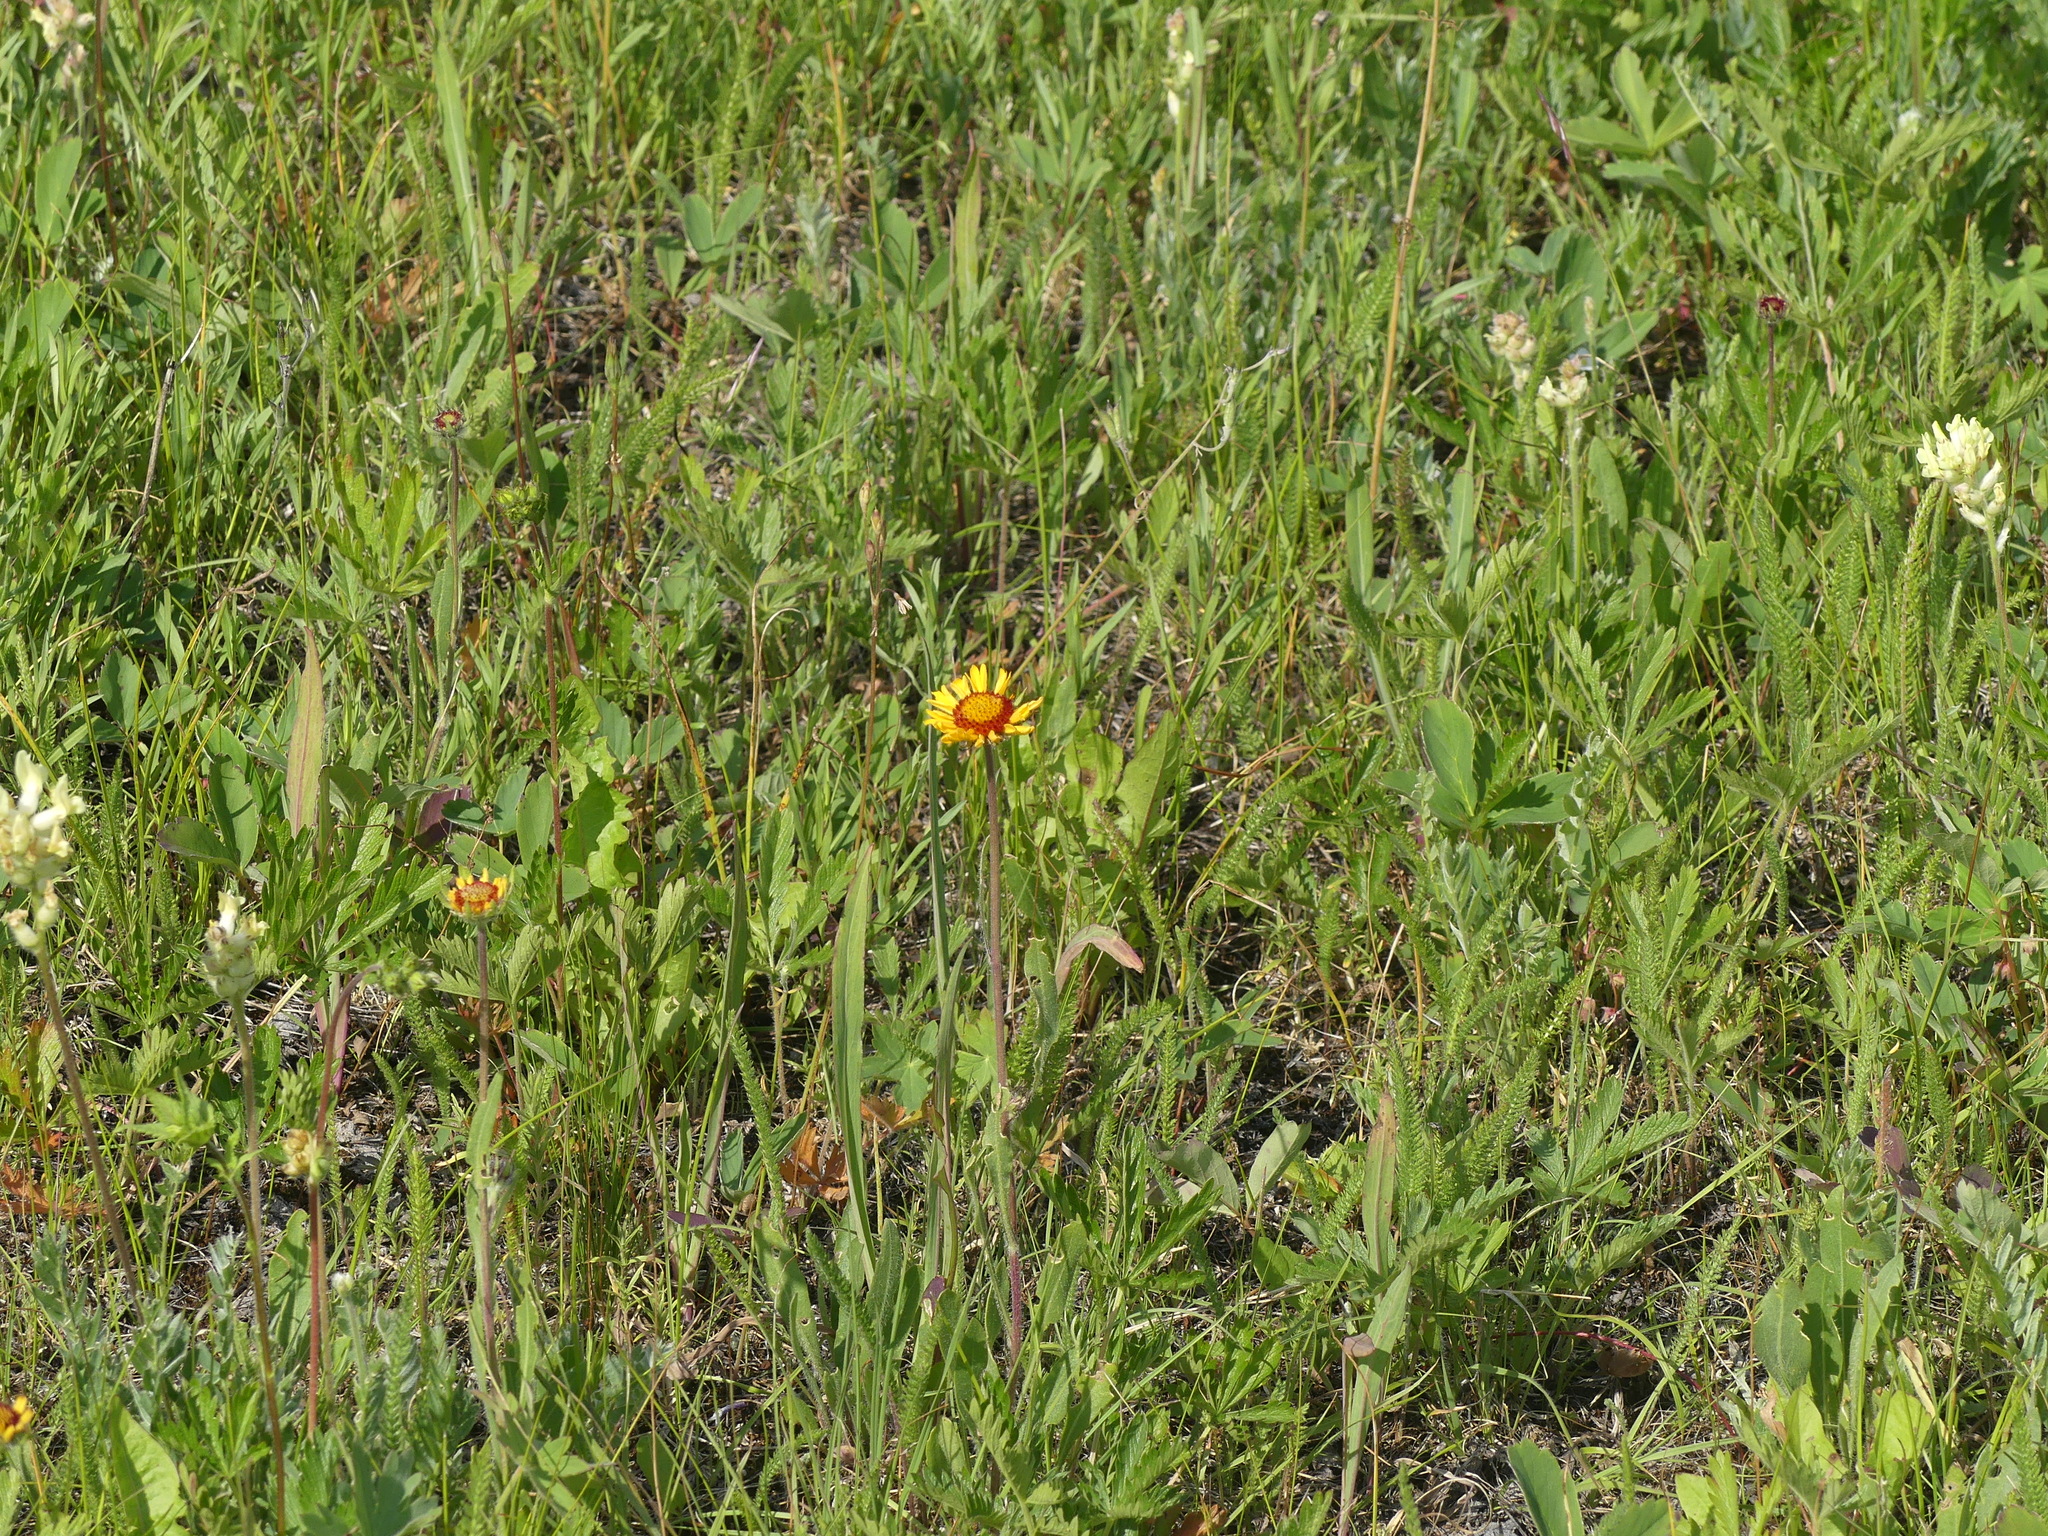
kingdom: Plantae
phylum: Tracheophyta
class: Magnoliopsida
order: Asterales
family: Asteraceae
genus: Gaillardia
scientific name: Gaillardia aristata
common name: Blanket-flower
